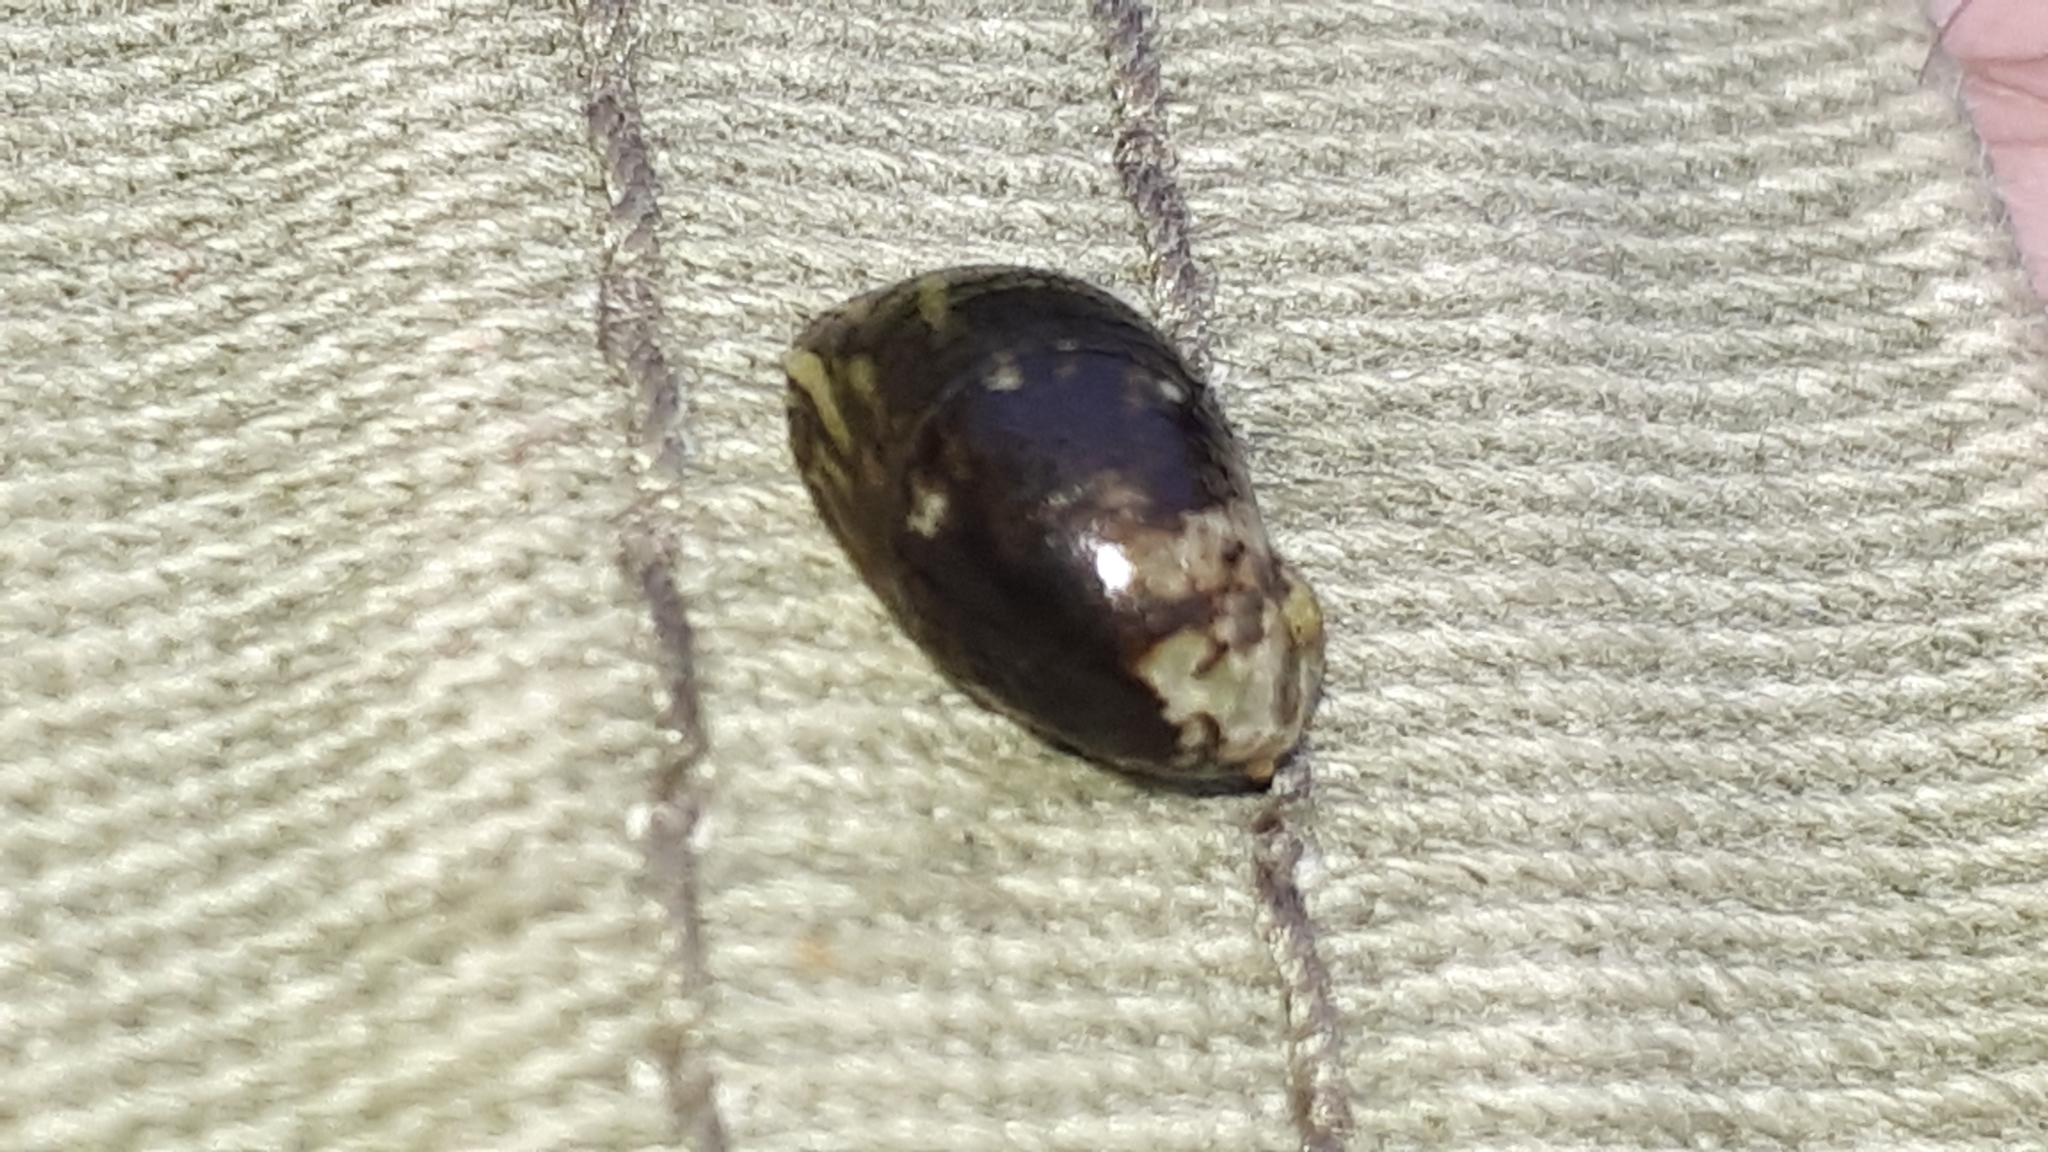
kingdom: Animalia
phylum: Mollusca
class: Gastropoda
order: Cycloneritida
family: Neritidae
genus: Theodoxus
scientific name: Theodoxus fluviatilis
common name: River nerite
